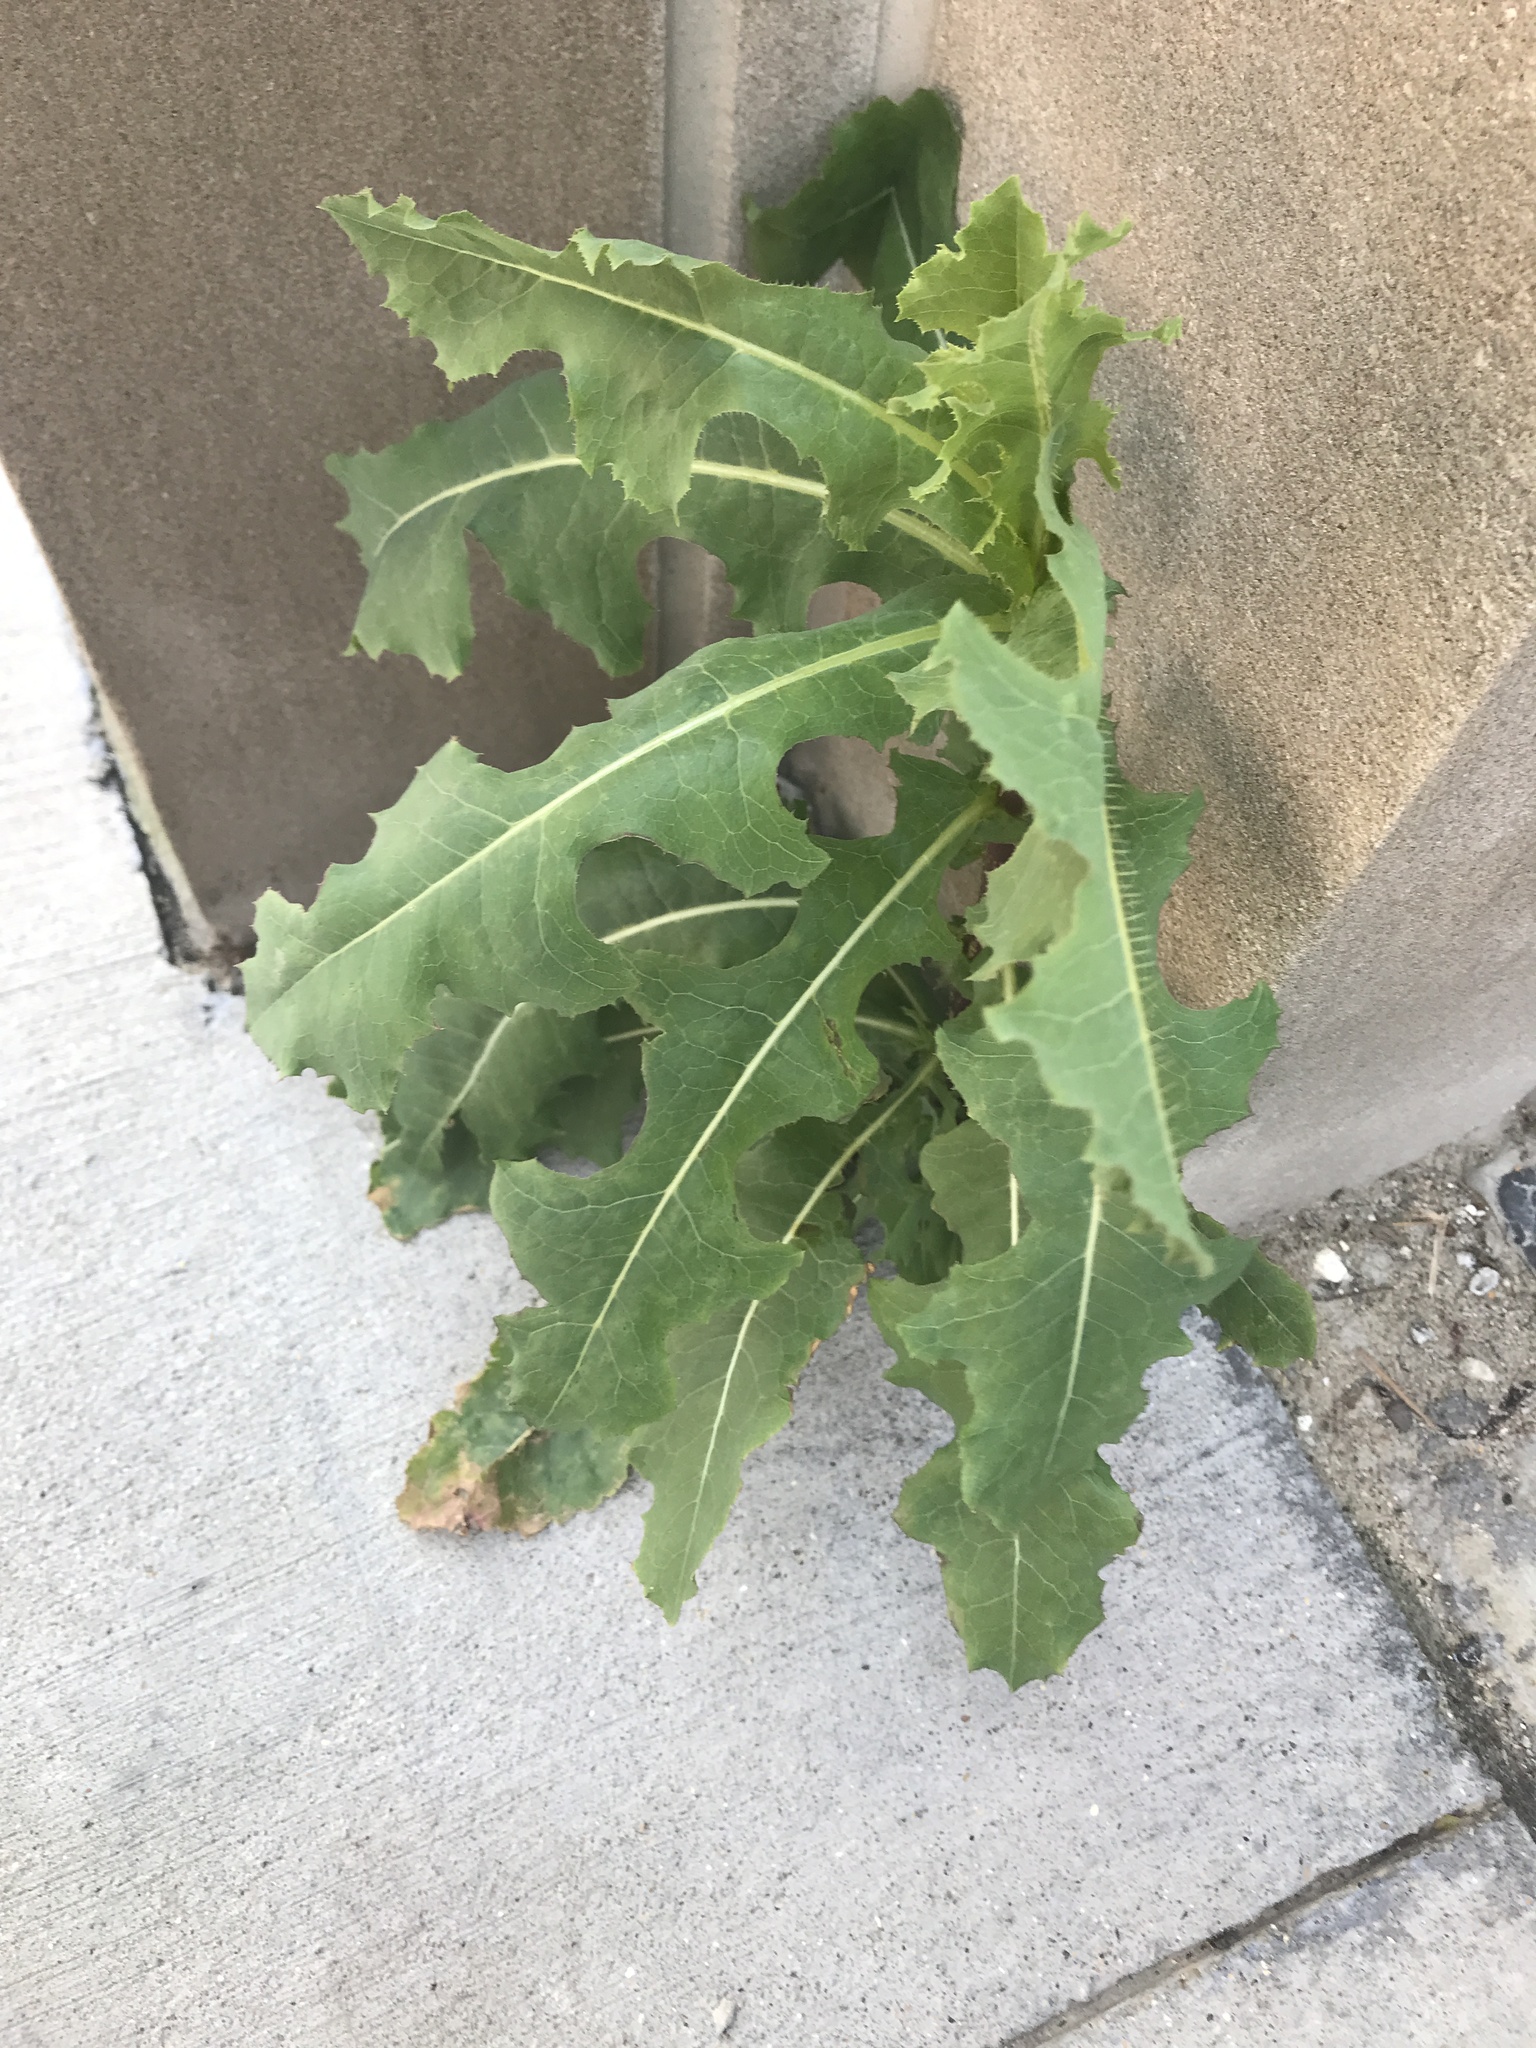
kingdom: Plantae
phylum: Tracheophyta
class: Magnoliopsida
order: Asterales
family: Asteraceae
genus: Lactuca
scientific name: Lactuca serriola
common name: Prickly lettuce
